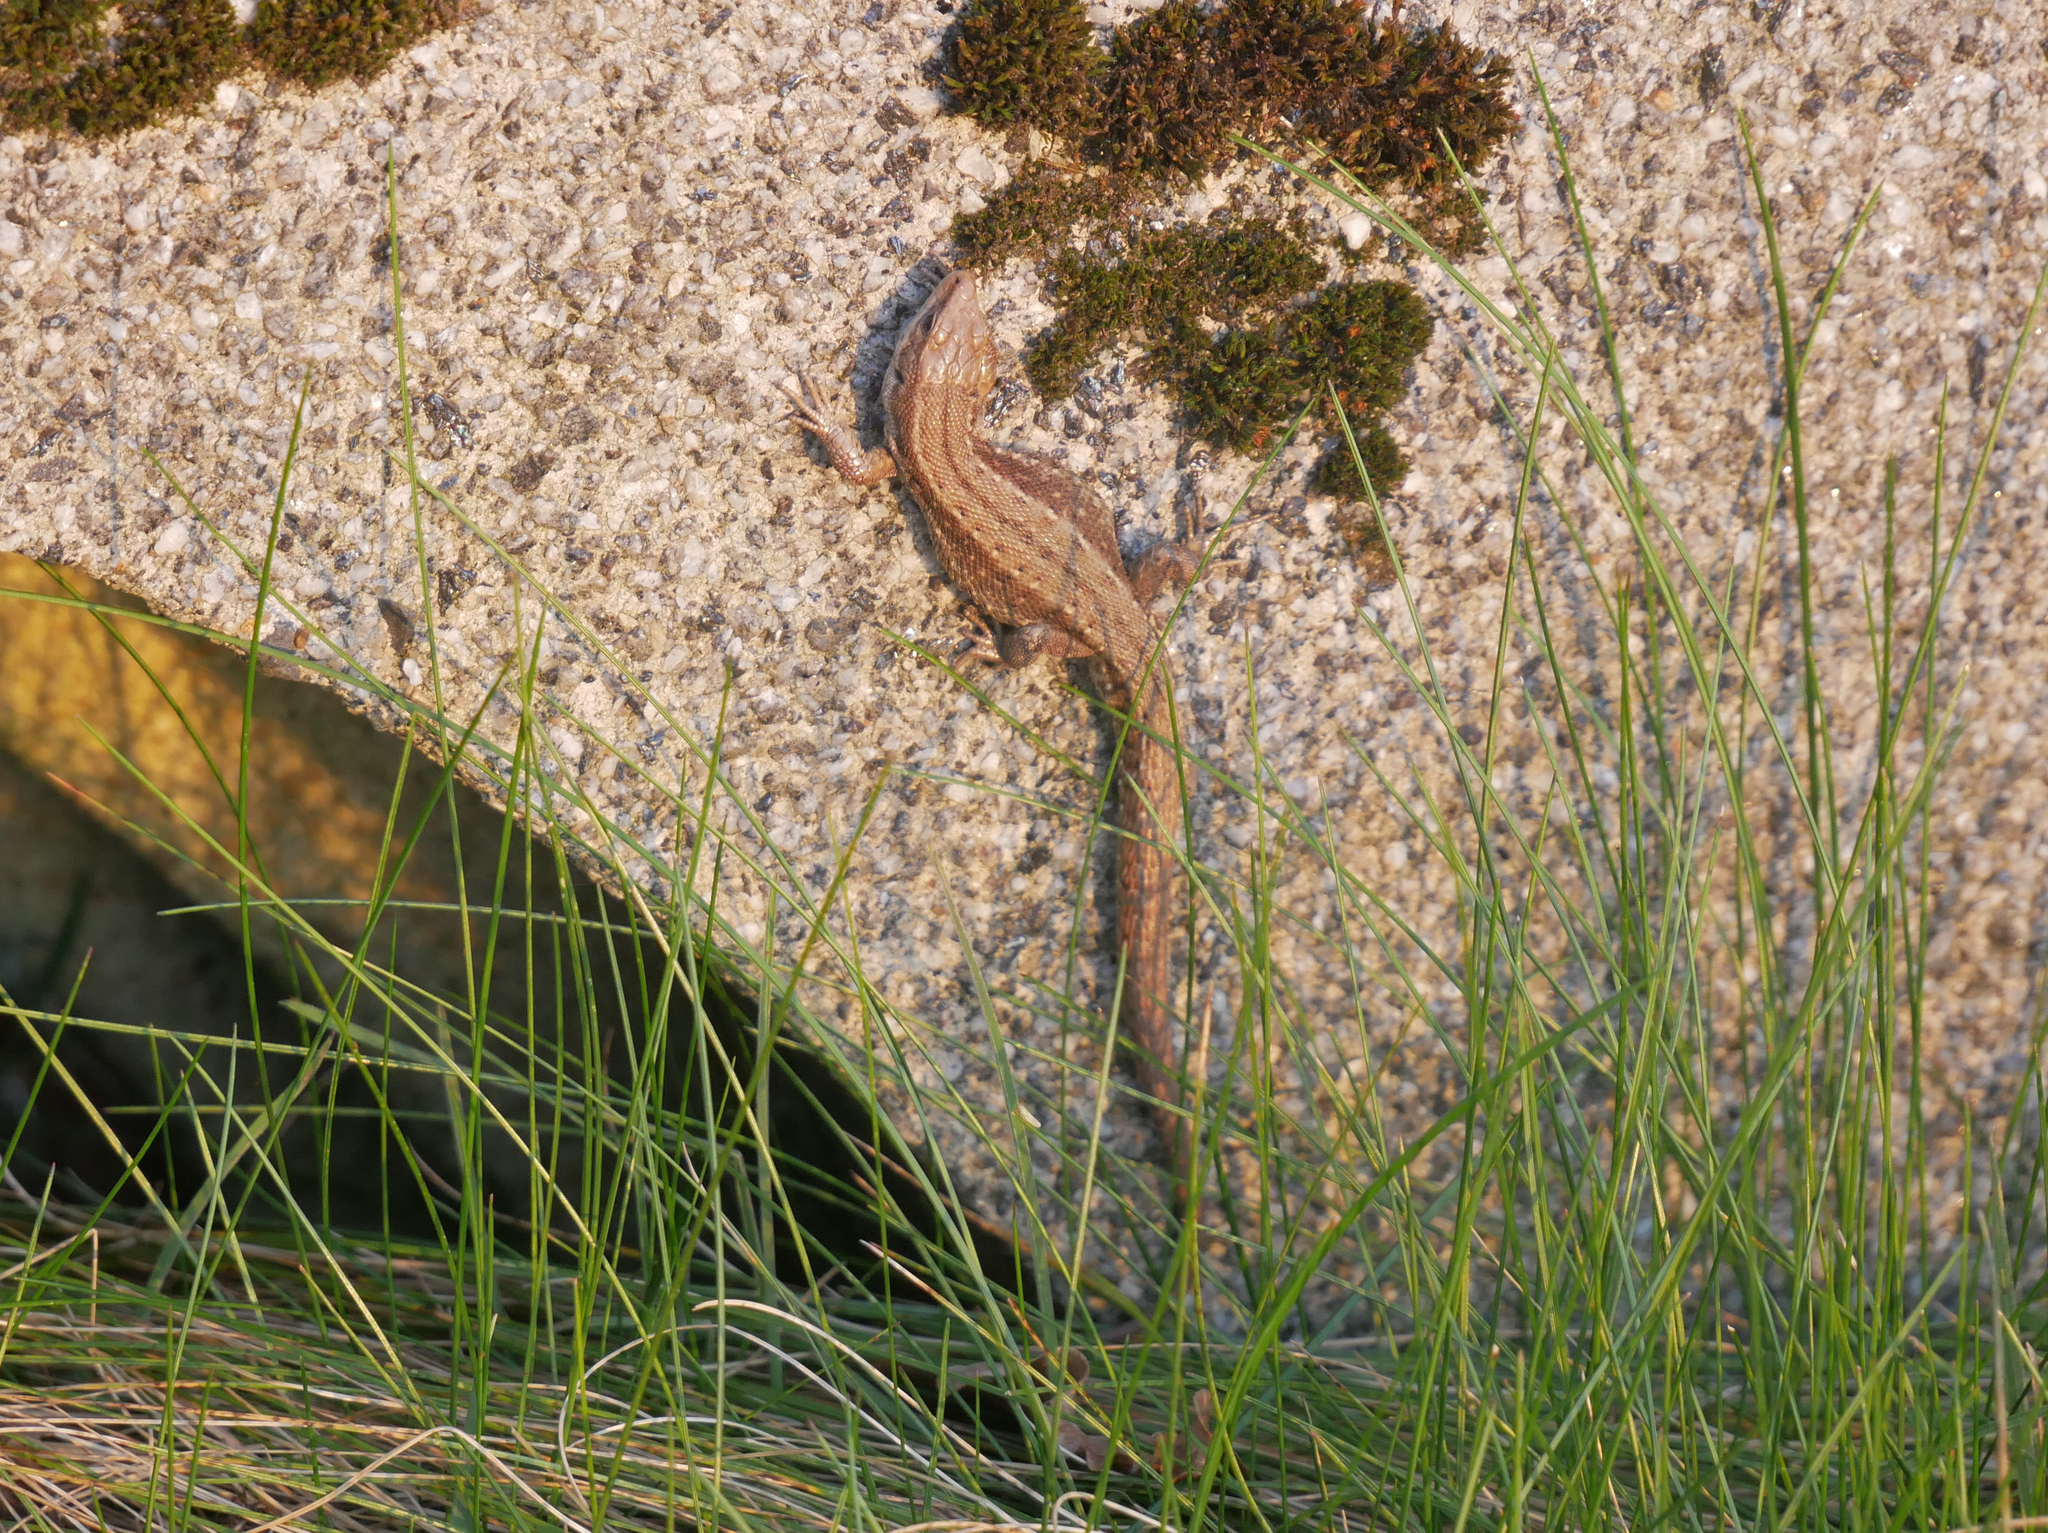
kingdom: Animalia
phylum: Chordata
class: Squamata
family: Lacertidae
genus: Zootoca
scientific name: Zootoca vivipara
